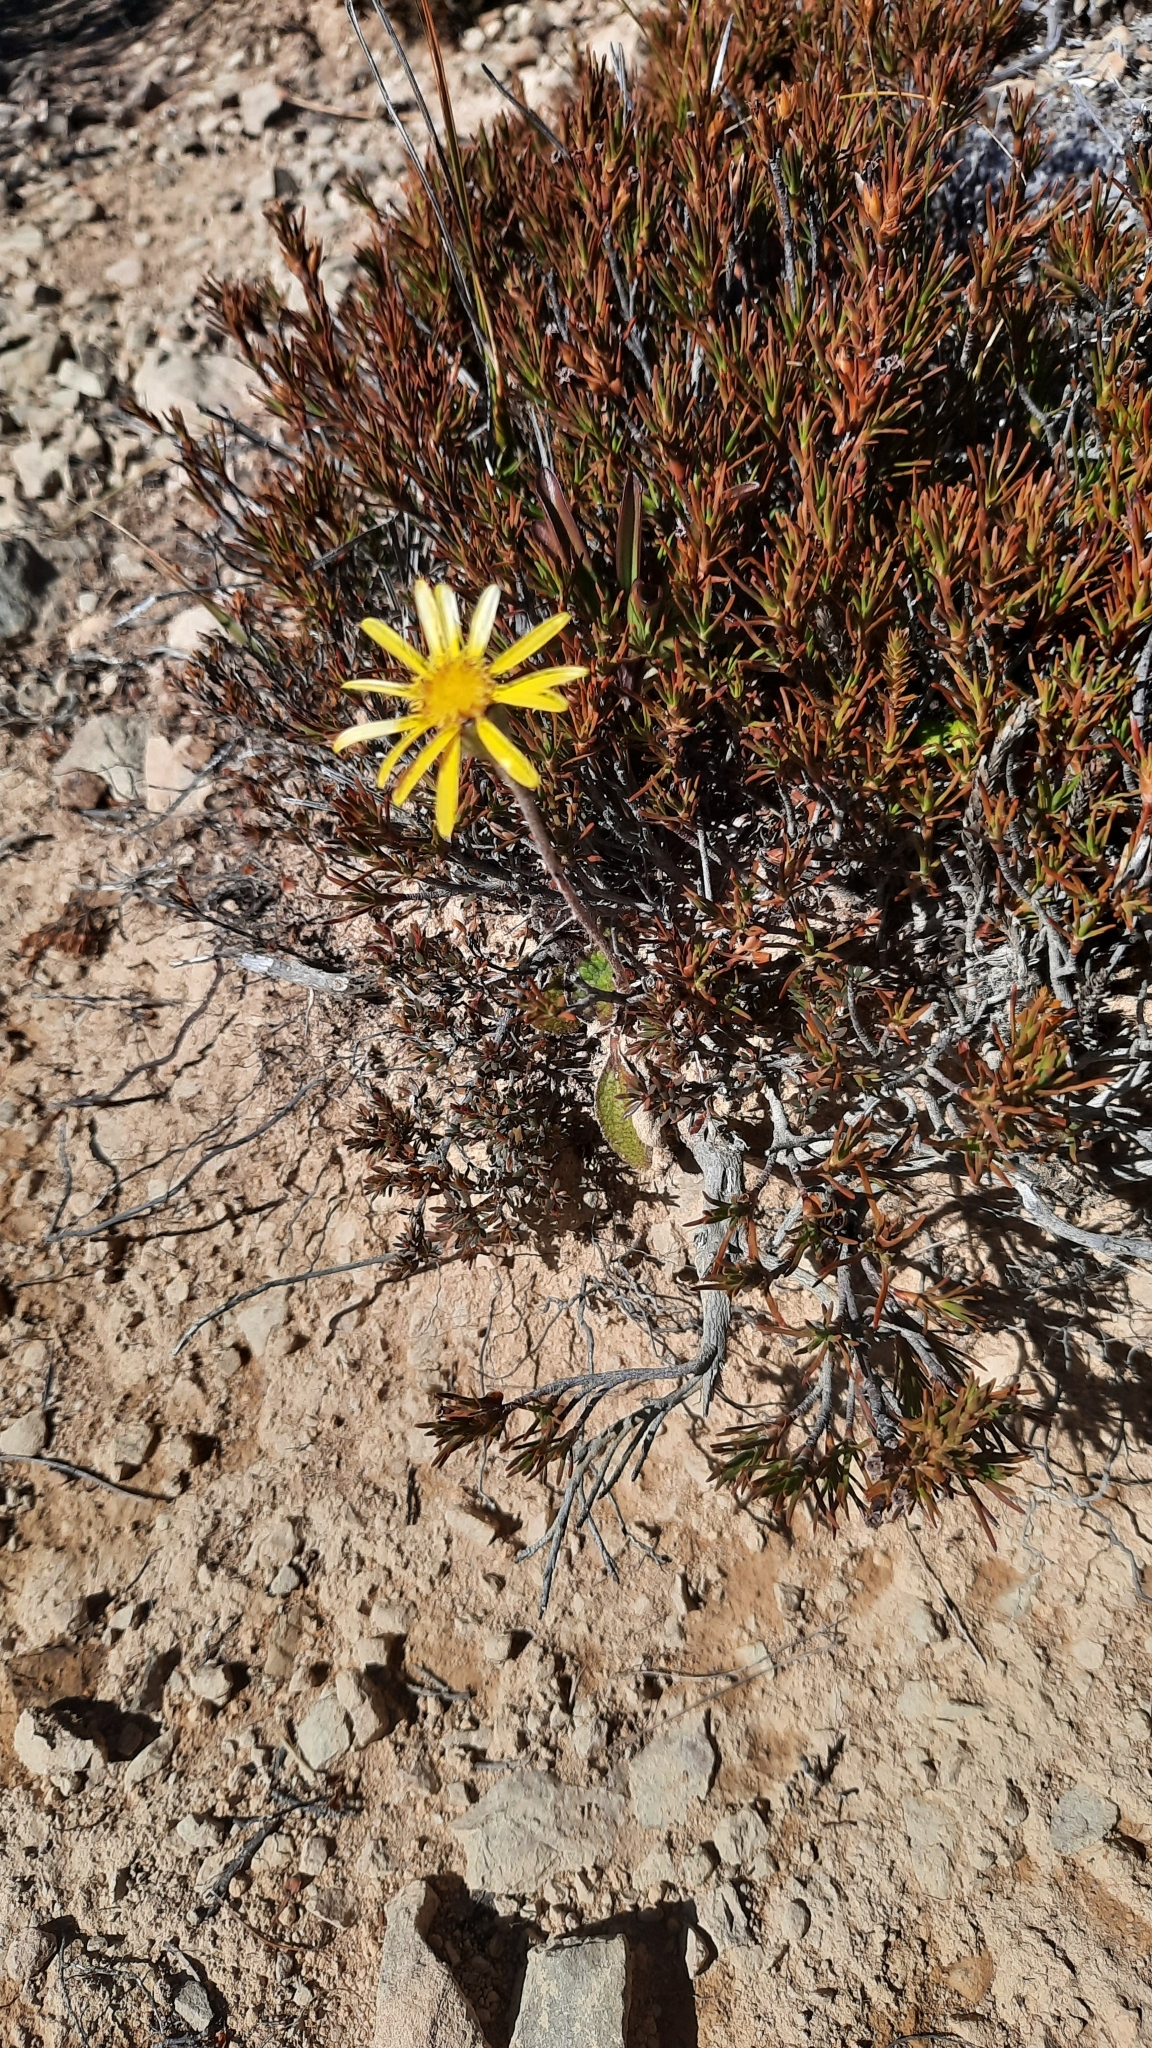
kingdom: Plantae
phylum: Tracheophyta
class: Magnoliopsida
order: Asterales
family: Asteraceae
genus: Brachyglottis
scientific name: Brachyglottis bellidioides
